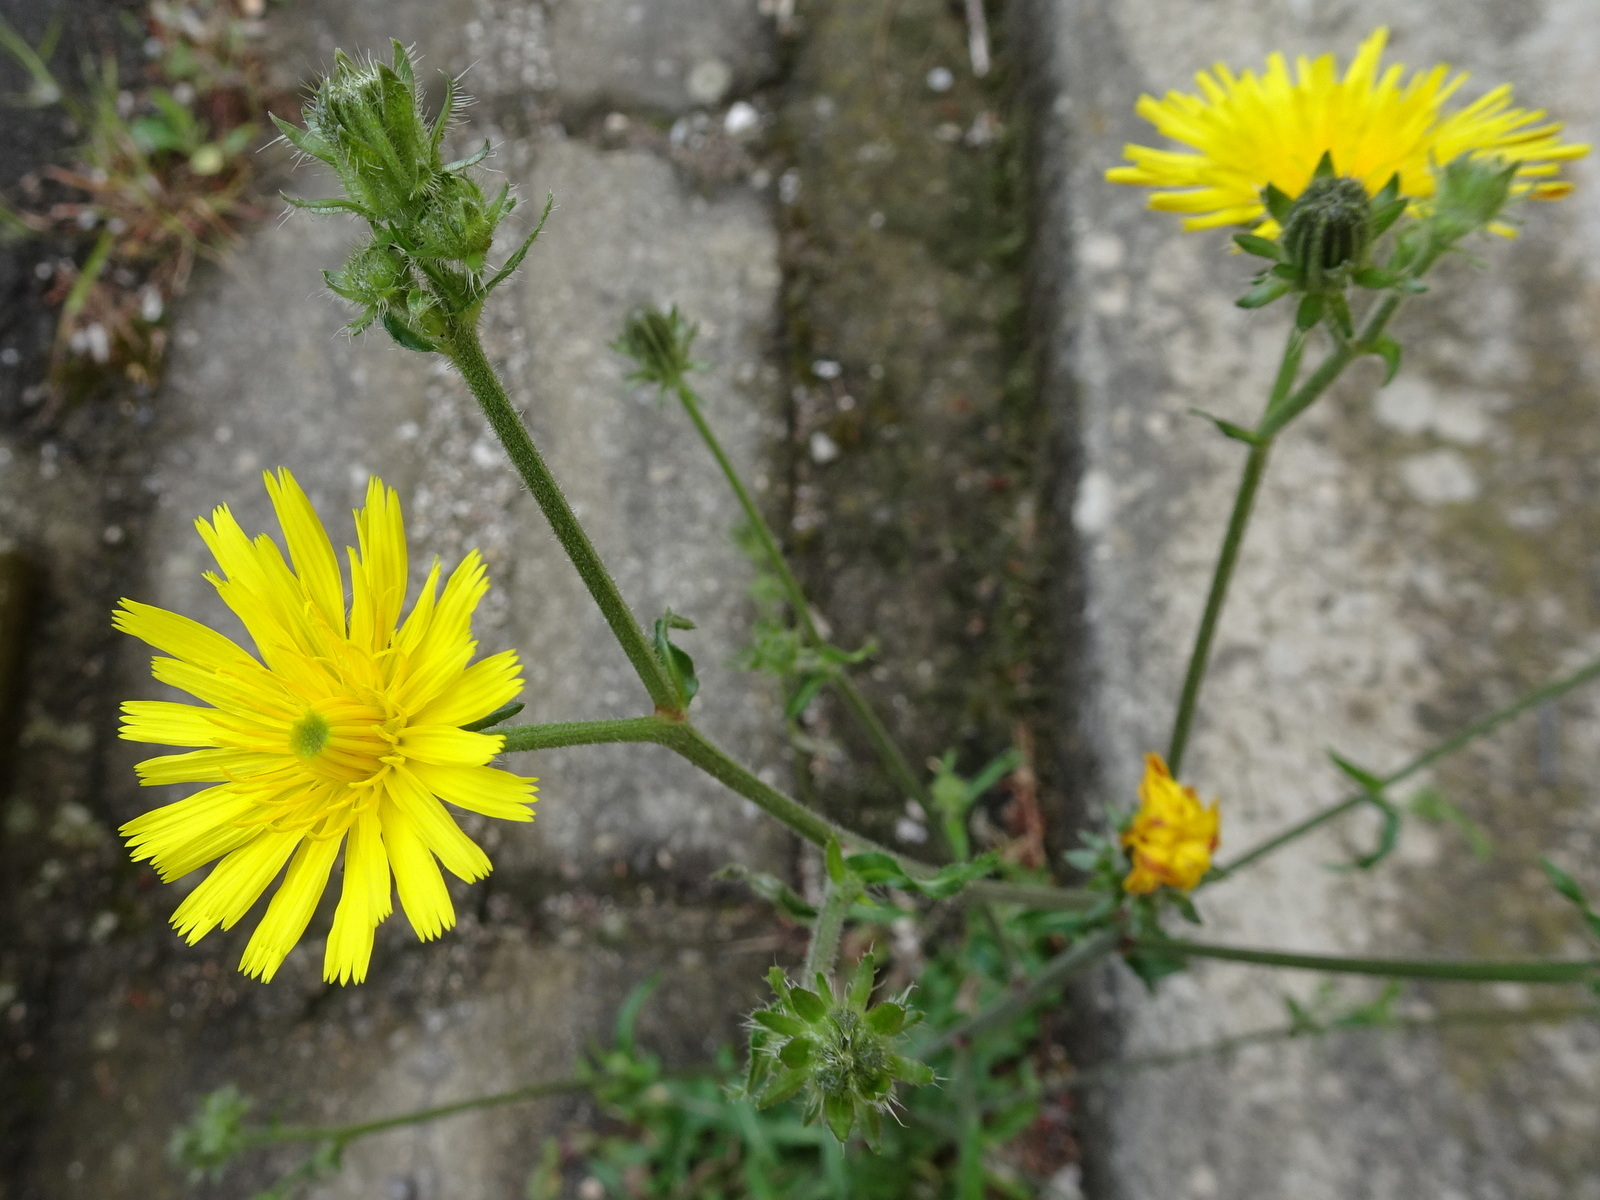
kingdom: Plantae
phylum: Tracheophyta
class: Magnoliopsida
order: Asterales
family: Asteraceae
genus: Picris
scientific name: Picris hieracioides
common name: Hawkweed oxtongue
